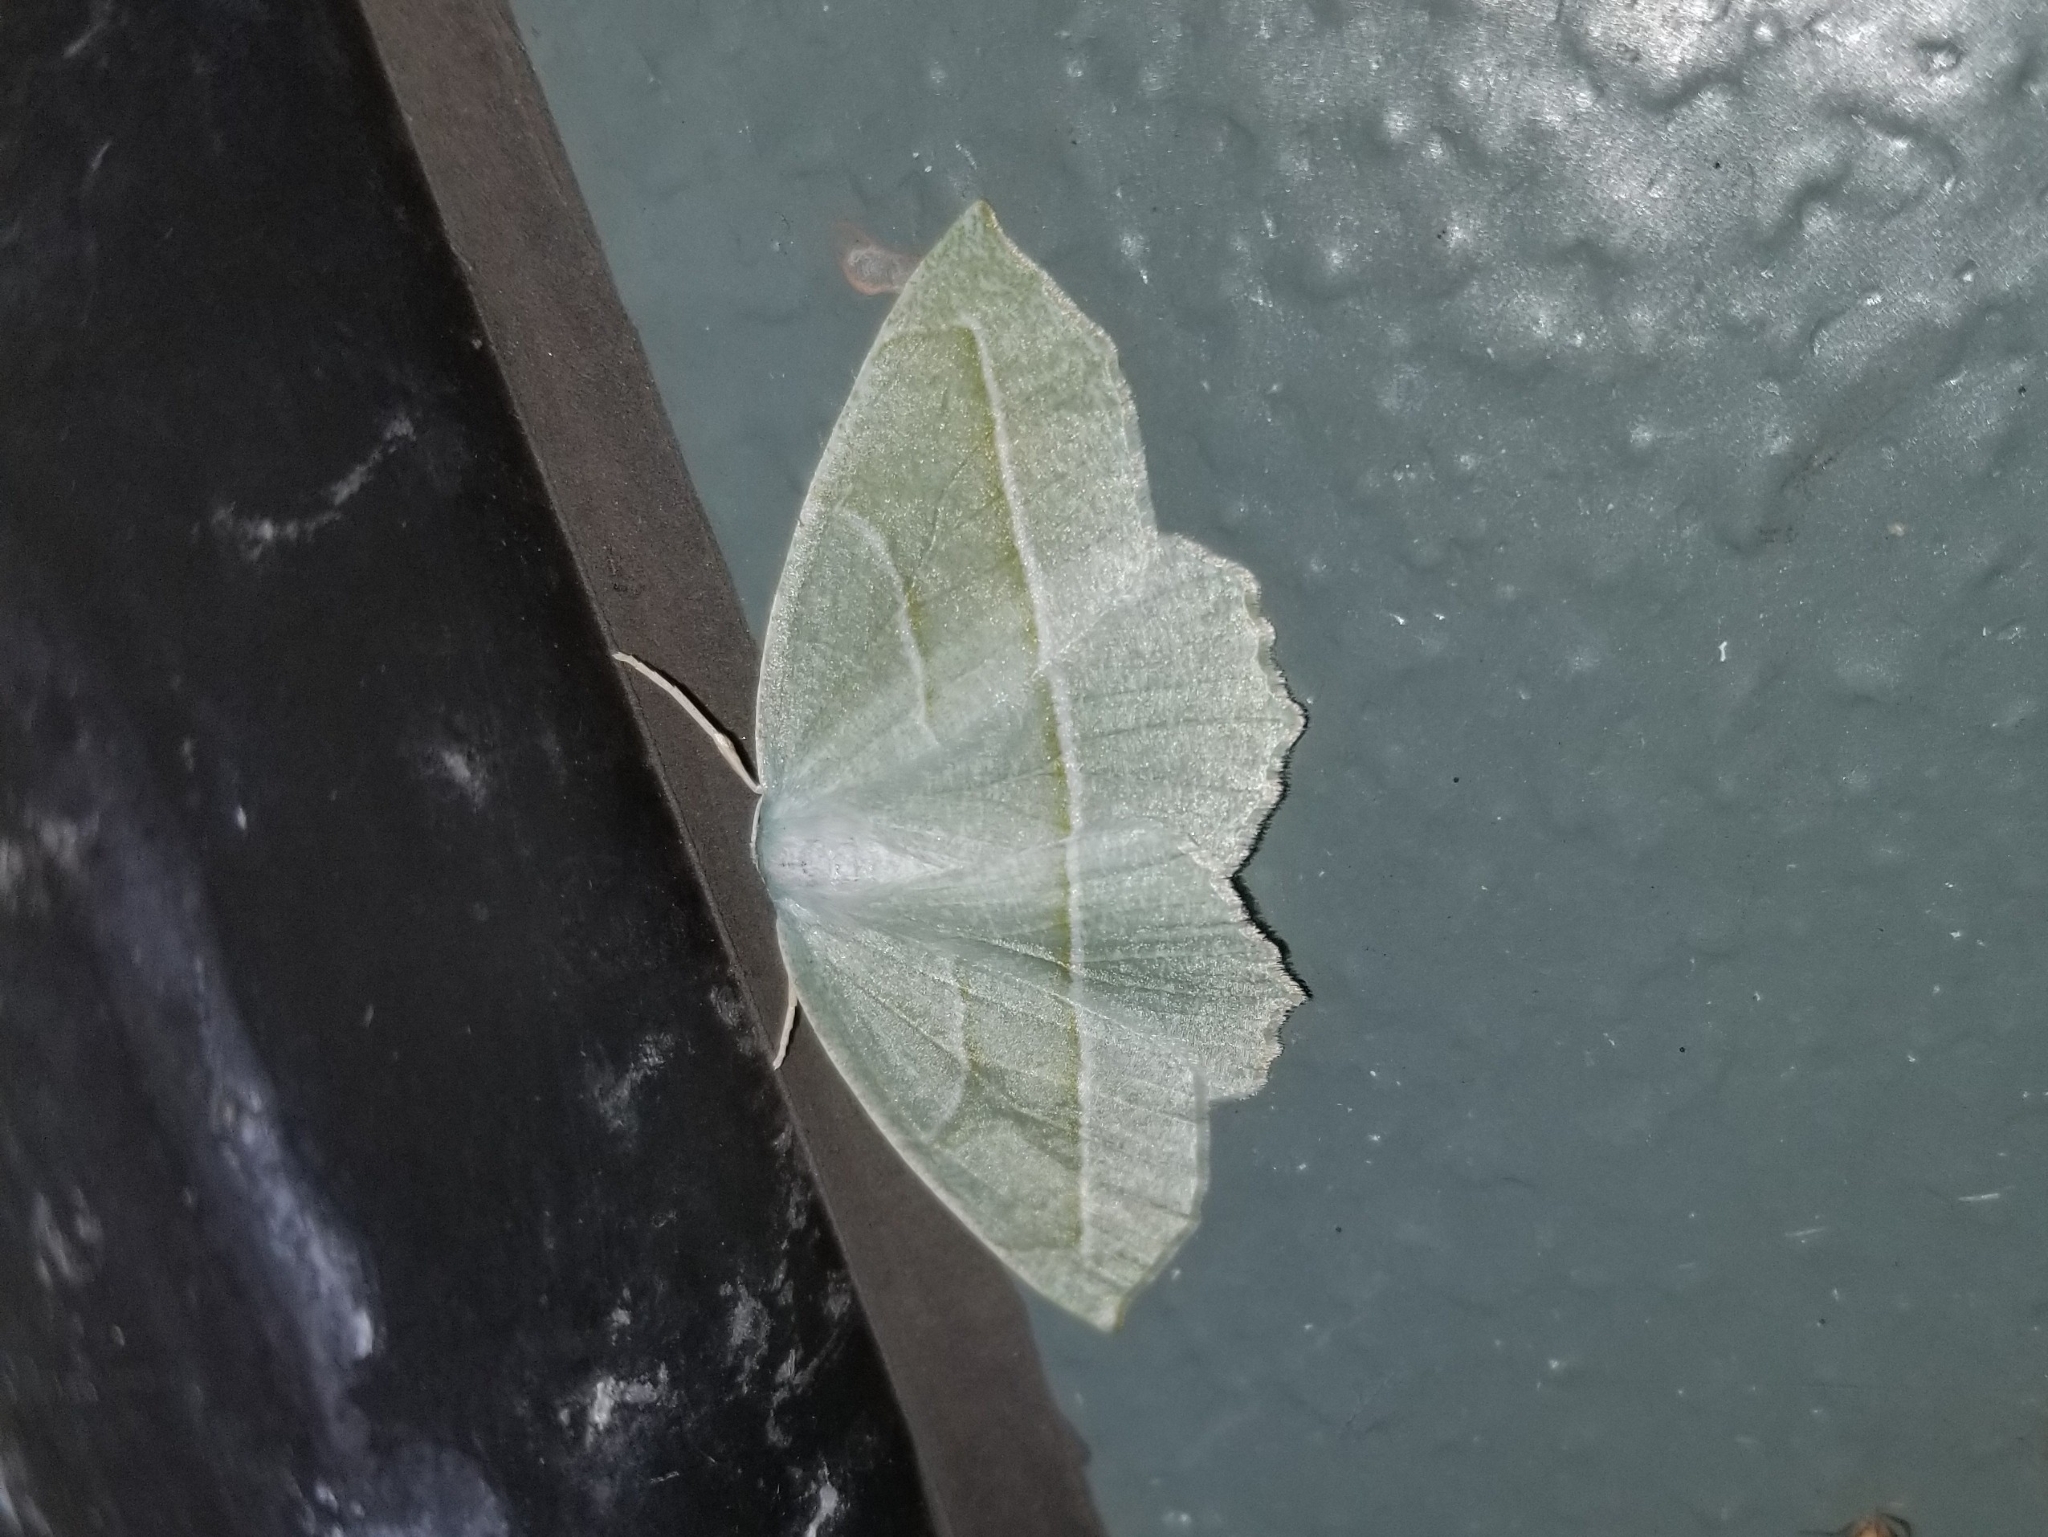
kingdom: Animalia
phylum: Arthropoda
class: Insecta
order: Lepidoptera
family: Geometridae
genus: Campaea
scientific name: Campaea perlata
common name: Fringed looper
